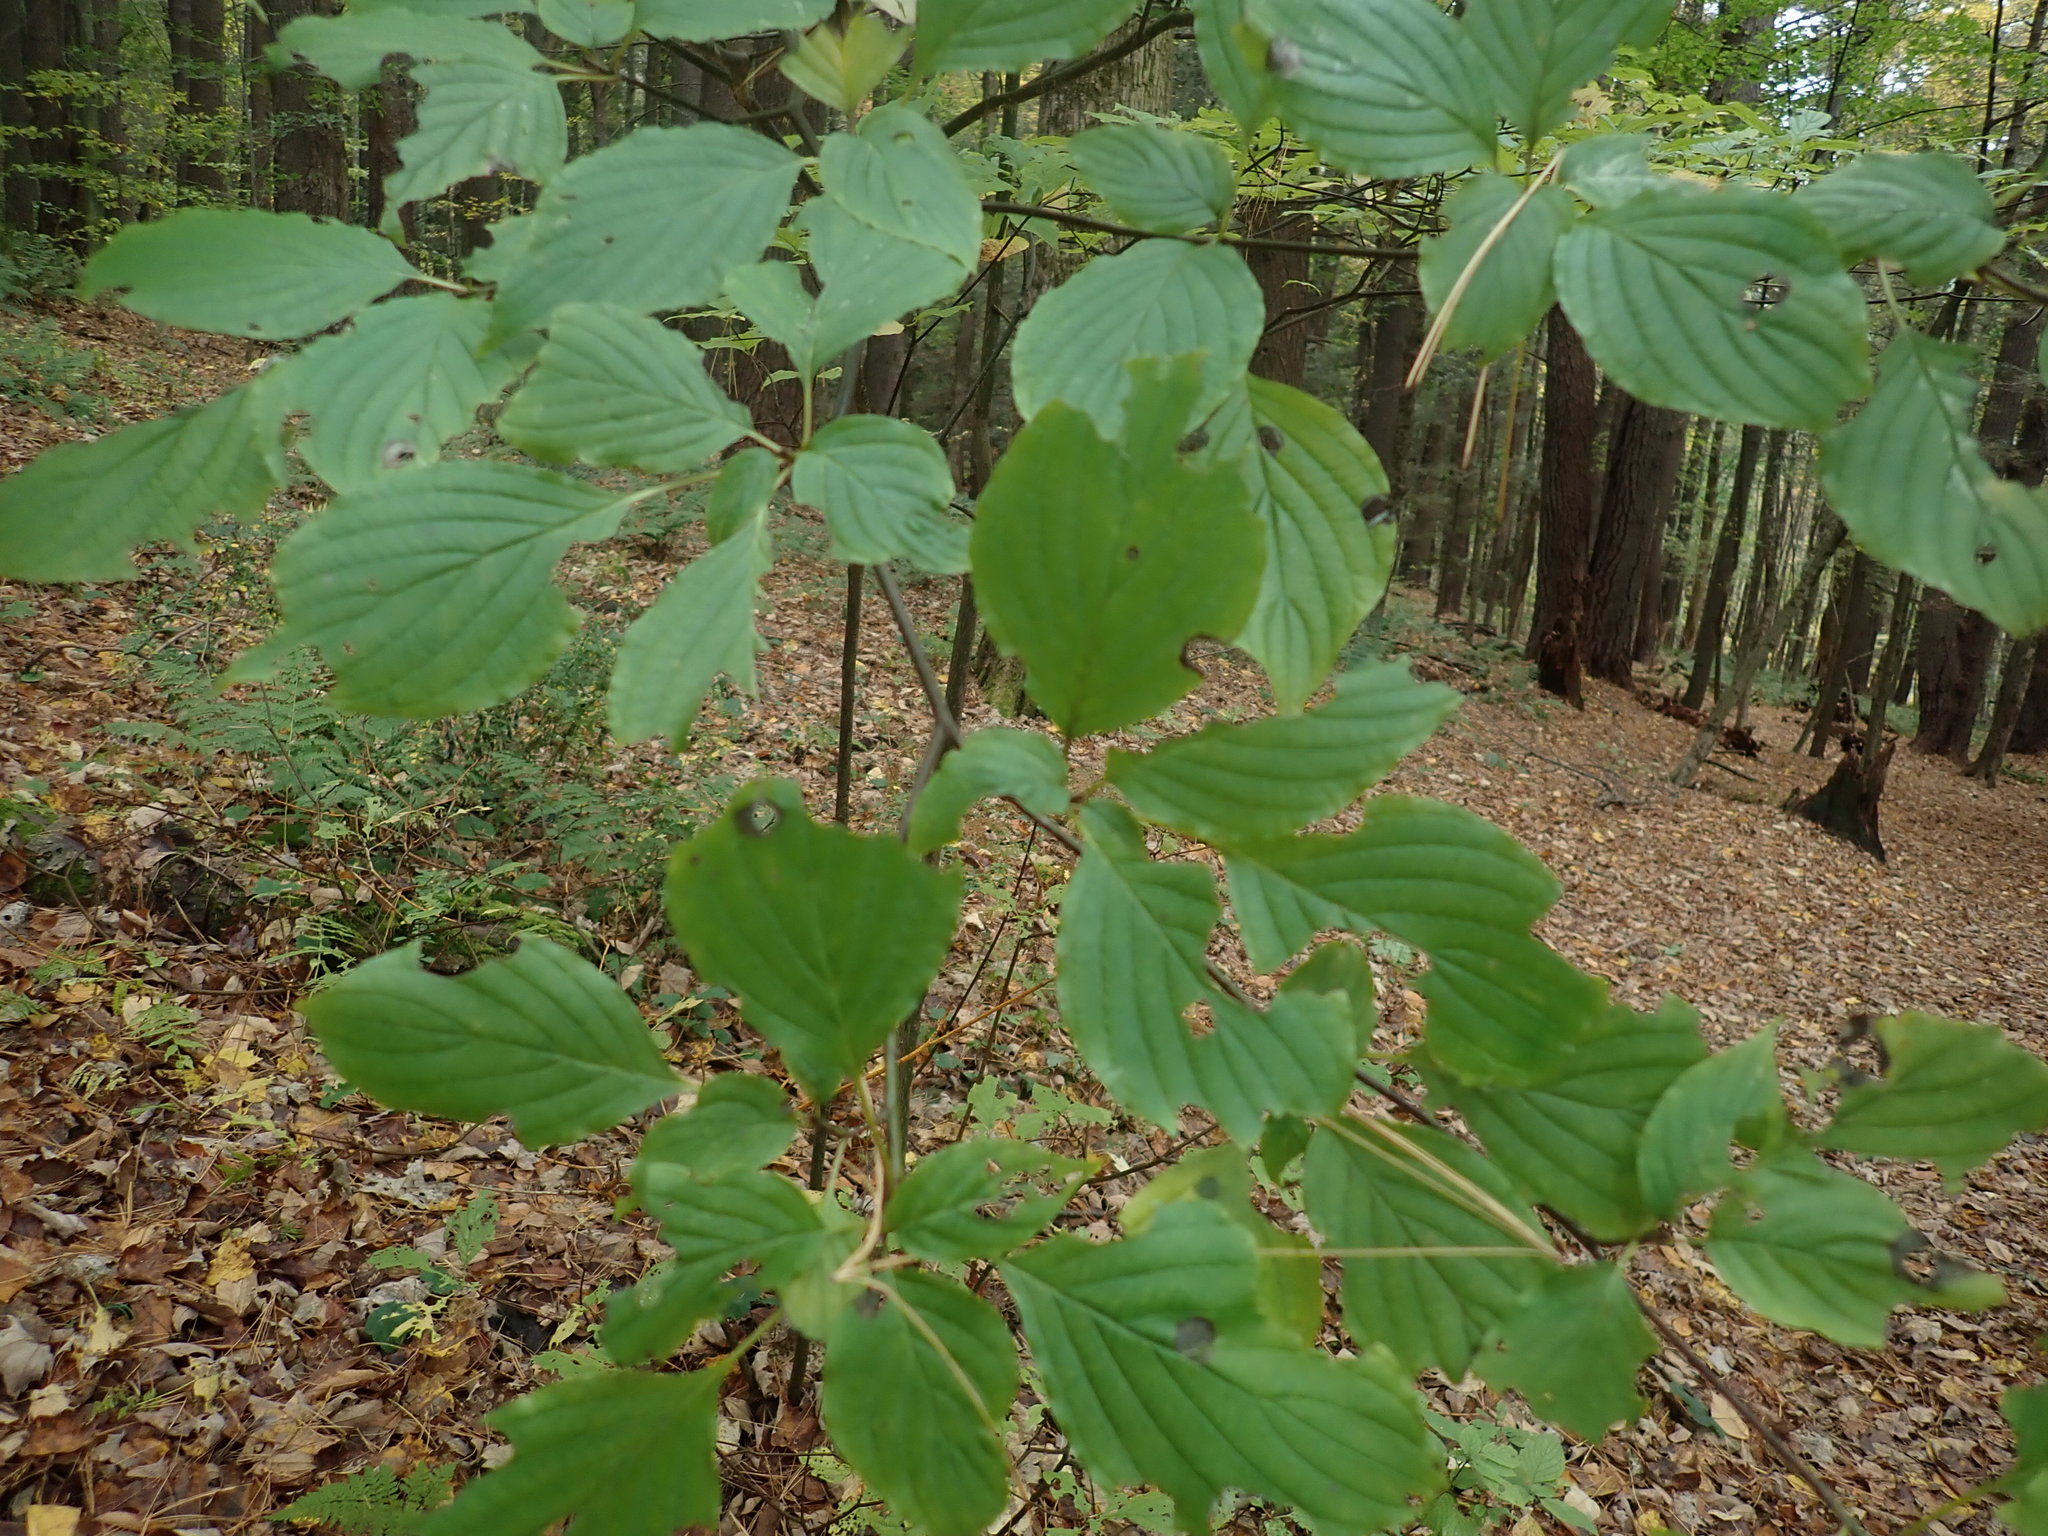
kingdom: Plantae
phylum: Tracheophyta
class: Magnoliopsida
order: Cornales
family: Cornaceae
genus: Cornus
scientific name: Cornus alternifolia
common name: Pagoda dogwood
